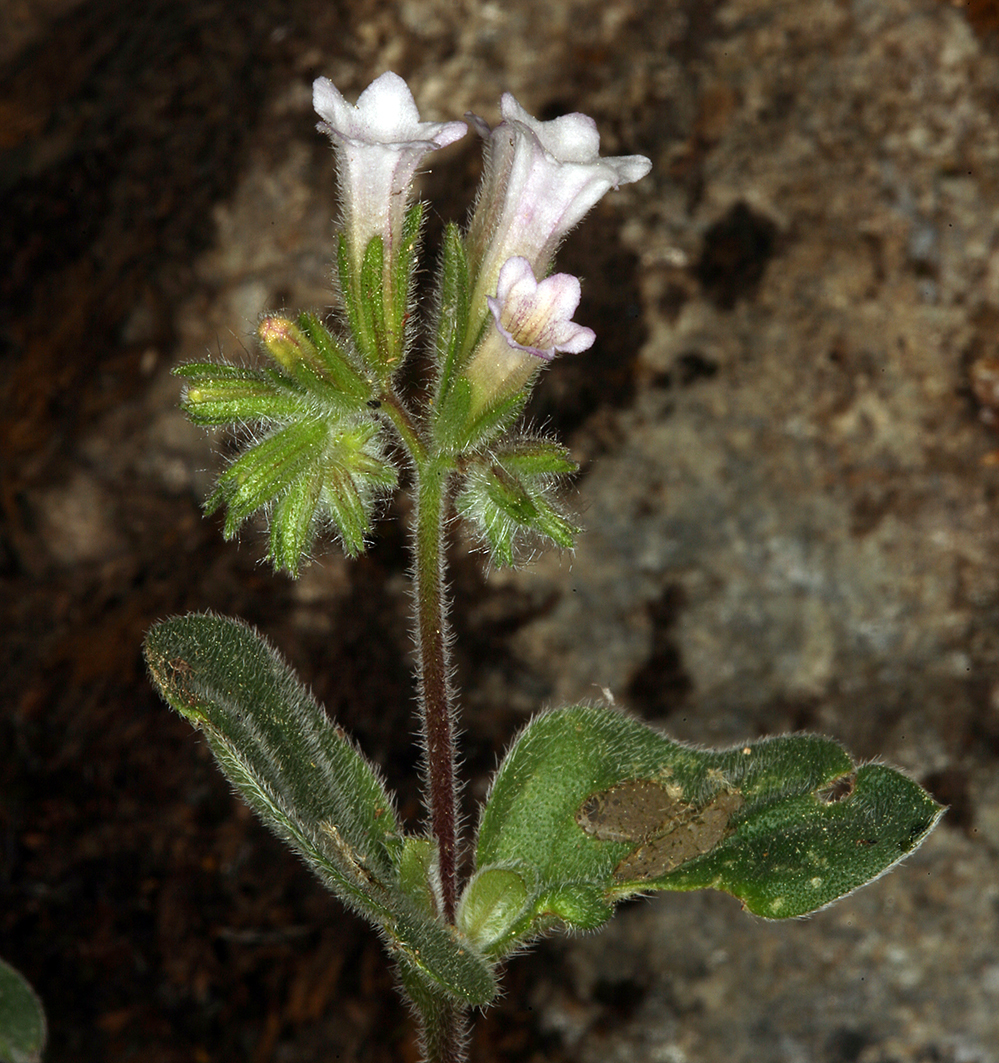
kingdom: Plantae
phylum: Tracheophyta
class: Magnoliopsida
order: Boraginales
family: Hydrophyllaceae
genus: Draperia
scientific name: Draperia systyla
